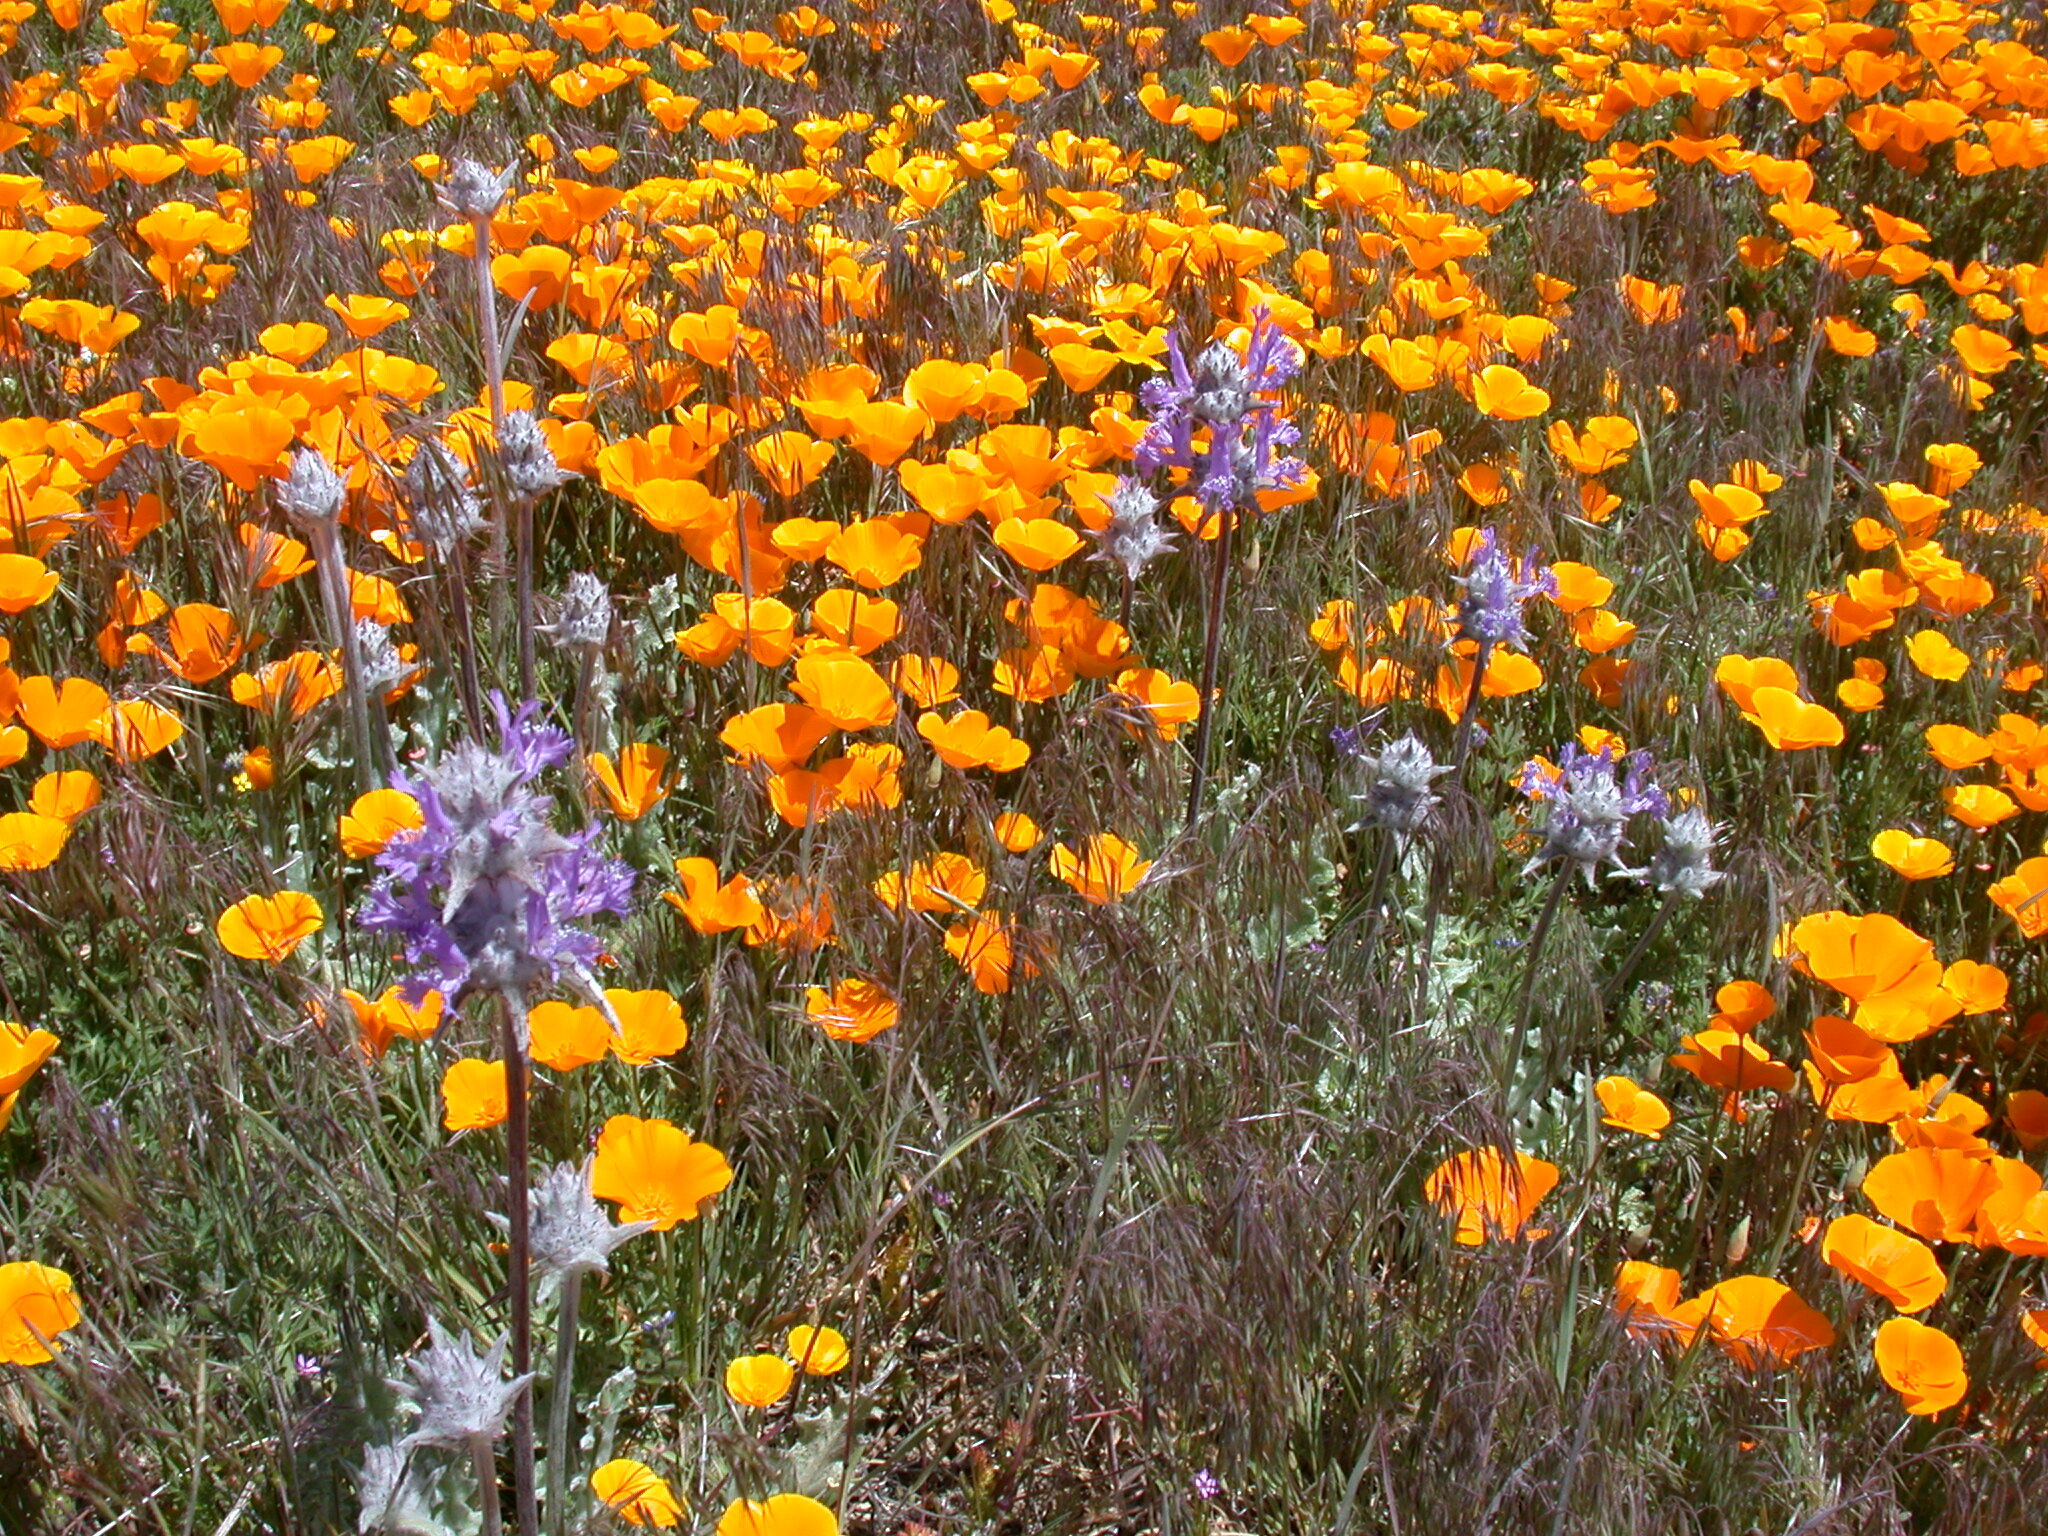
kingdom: Plantae
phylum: Tracheophyta
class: Magnoliopsida
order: Lamiales
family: Lamiaceae
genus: Salvia
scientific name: Salvia carduacea
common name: Thistle sage
